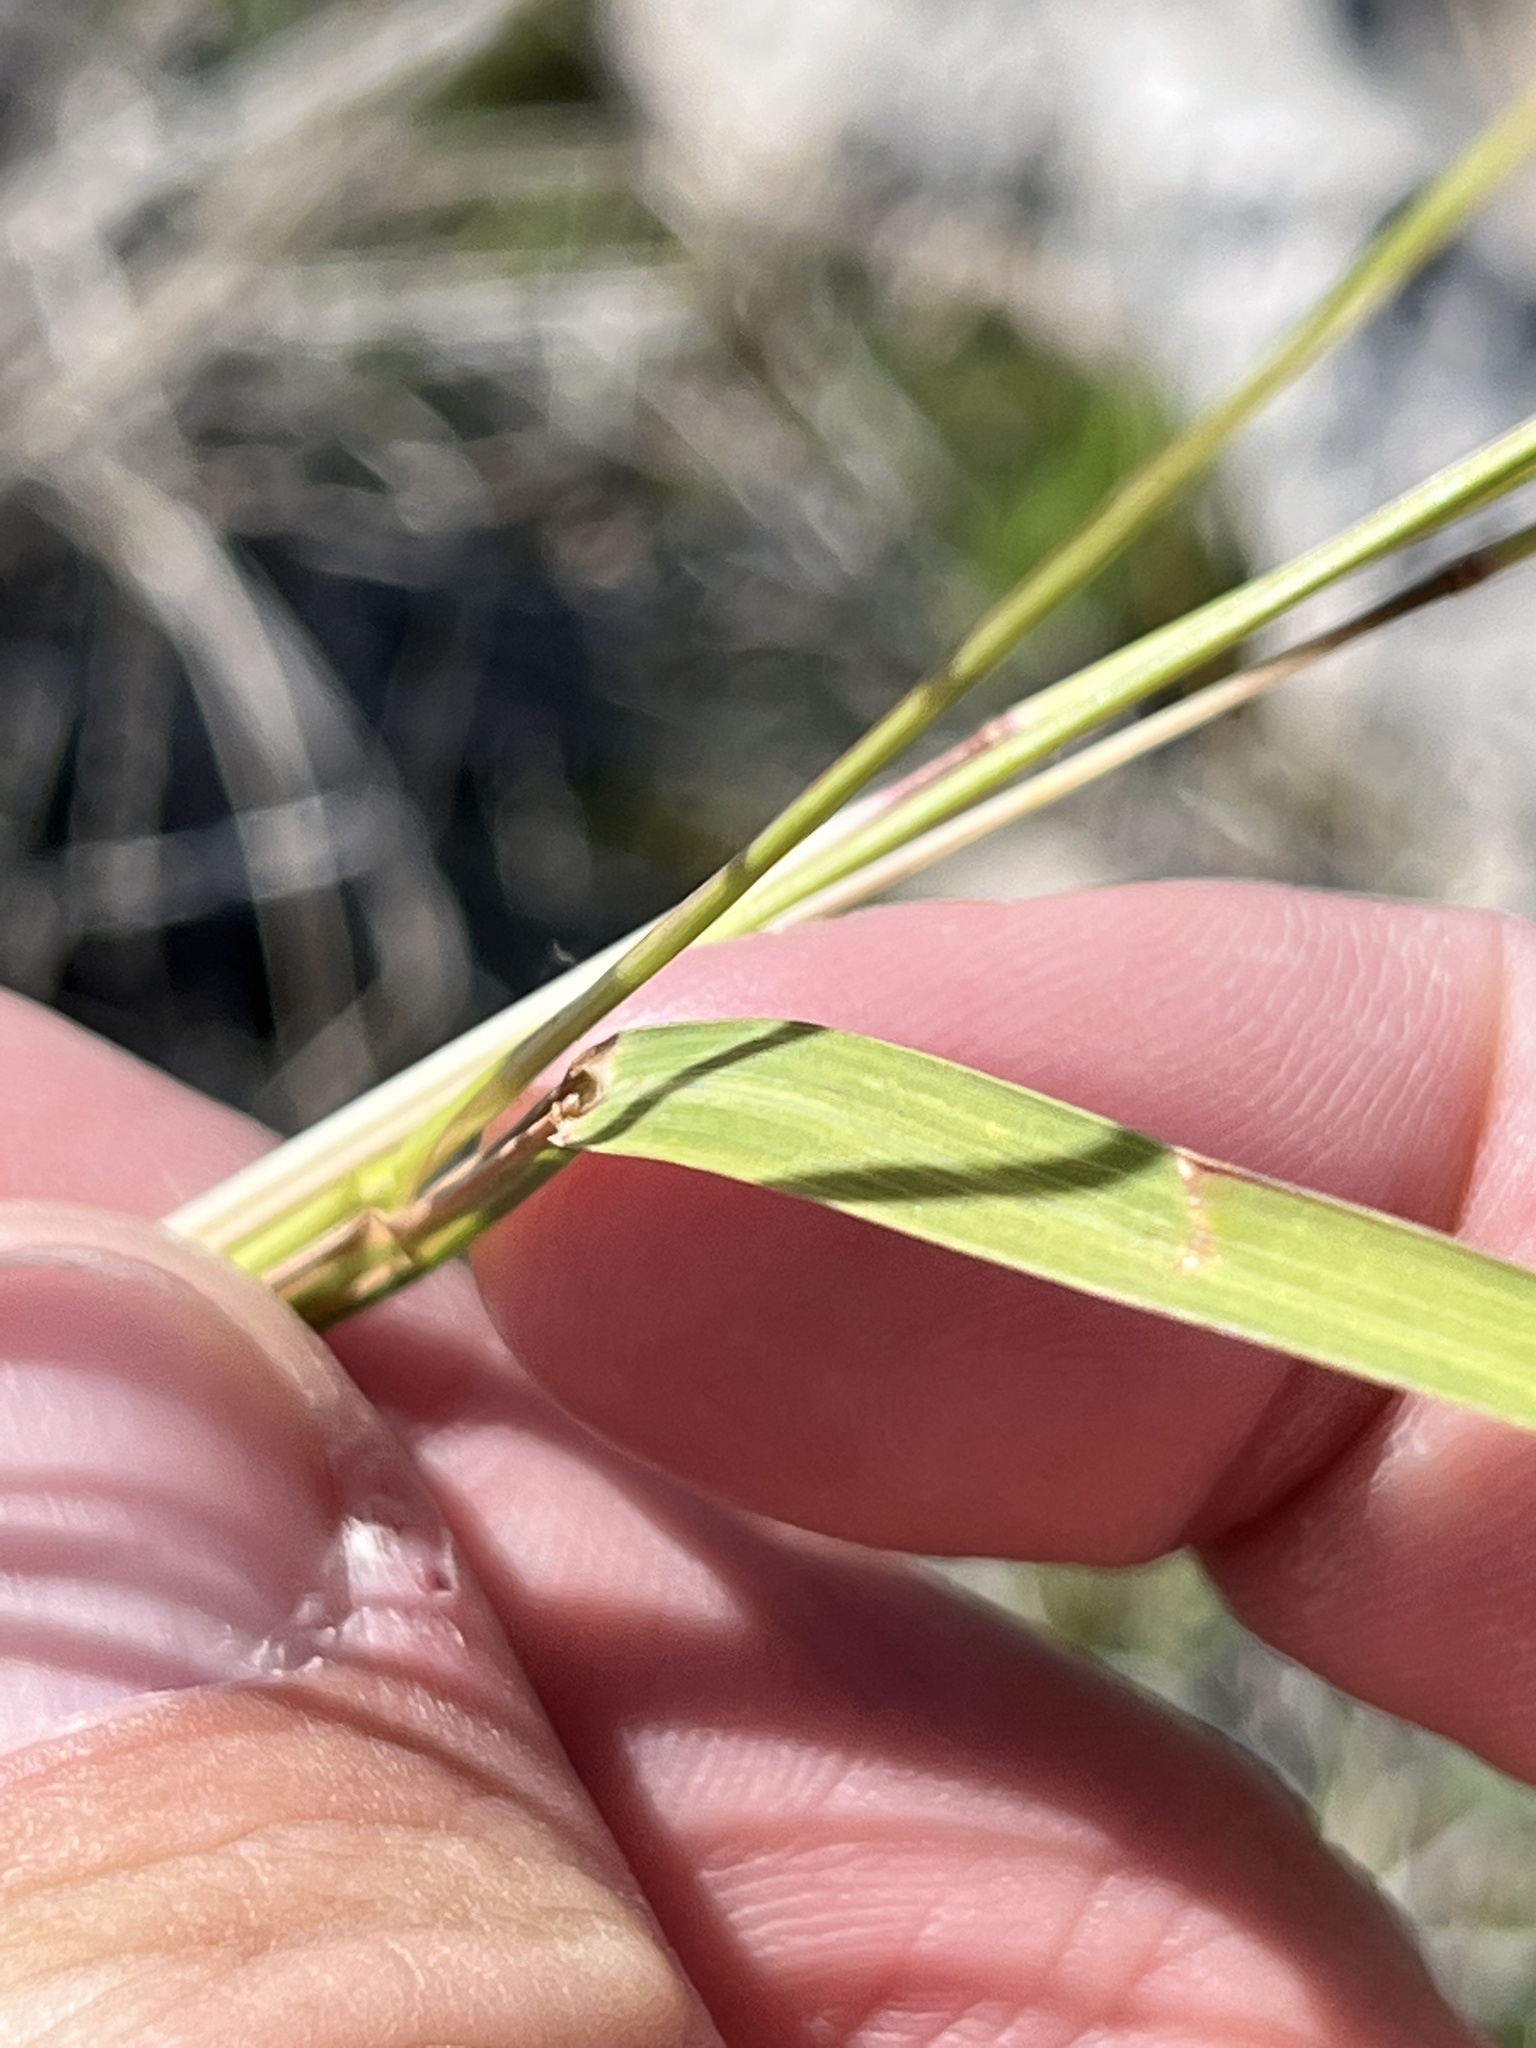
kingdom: Plantae
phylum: Tracheophyta
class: Liliopsida
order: Poales
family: Poaceae
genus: Heteropogon
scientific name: Heteropogon contortus
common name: Tanglehead
